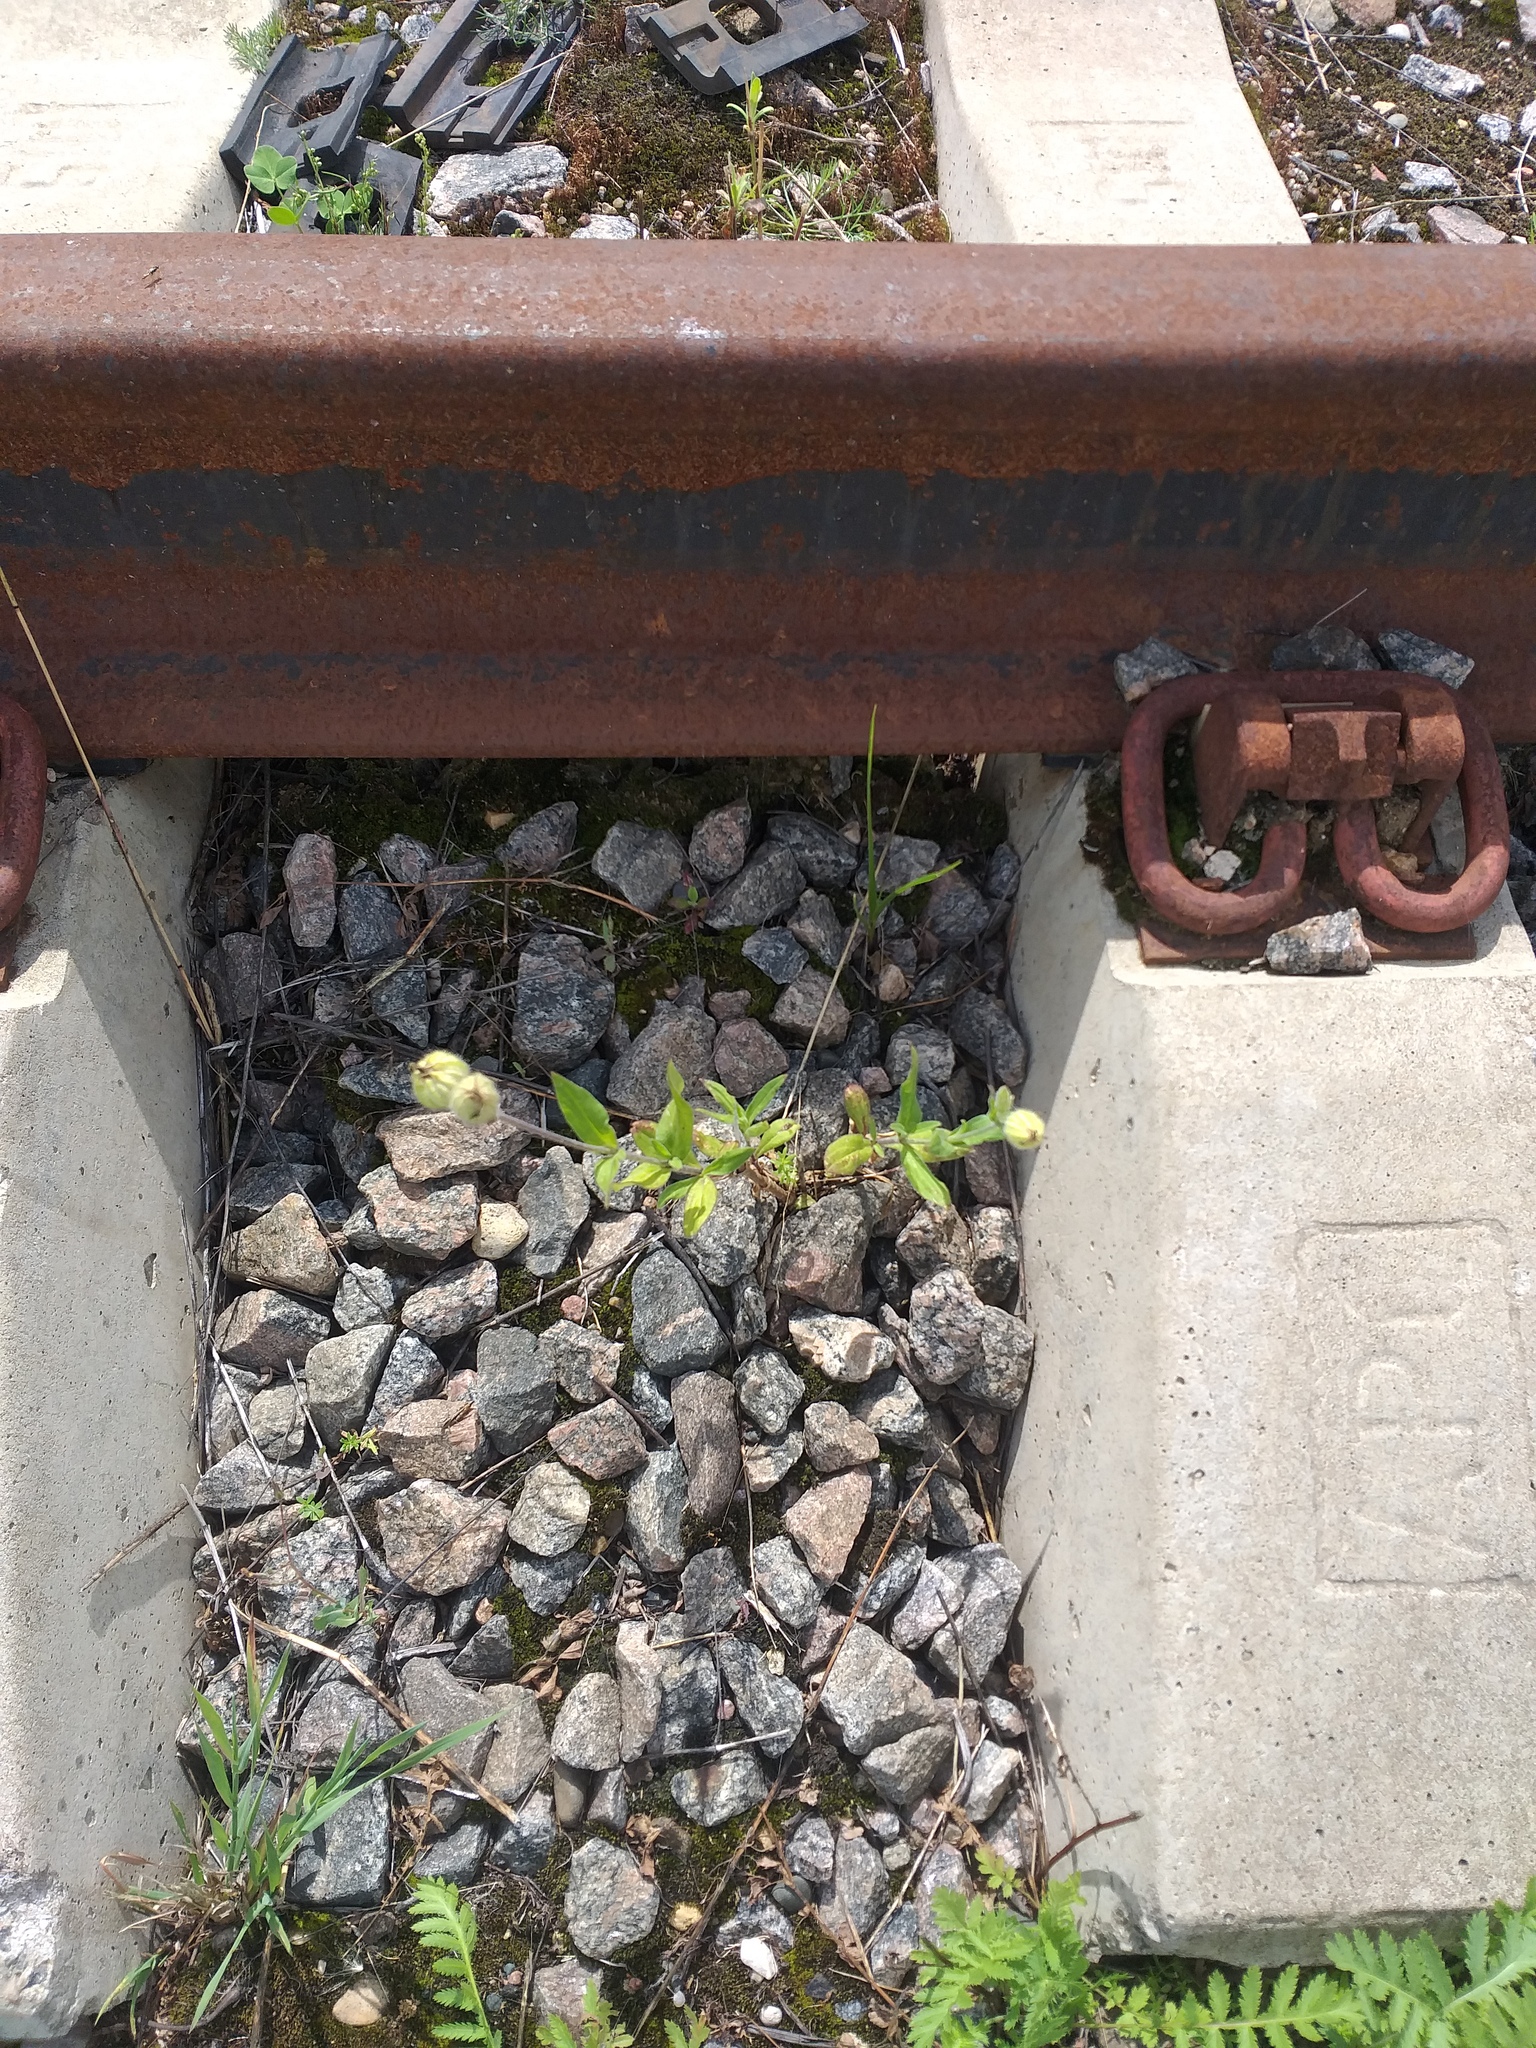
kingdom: Plantae
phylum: Tracheophyta
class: Magnoliopsida
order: Caryophyllales
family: Caryophyllaceae
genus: Silene
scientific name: Silene latifolia
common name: White campion
